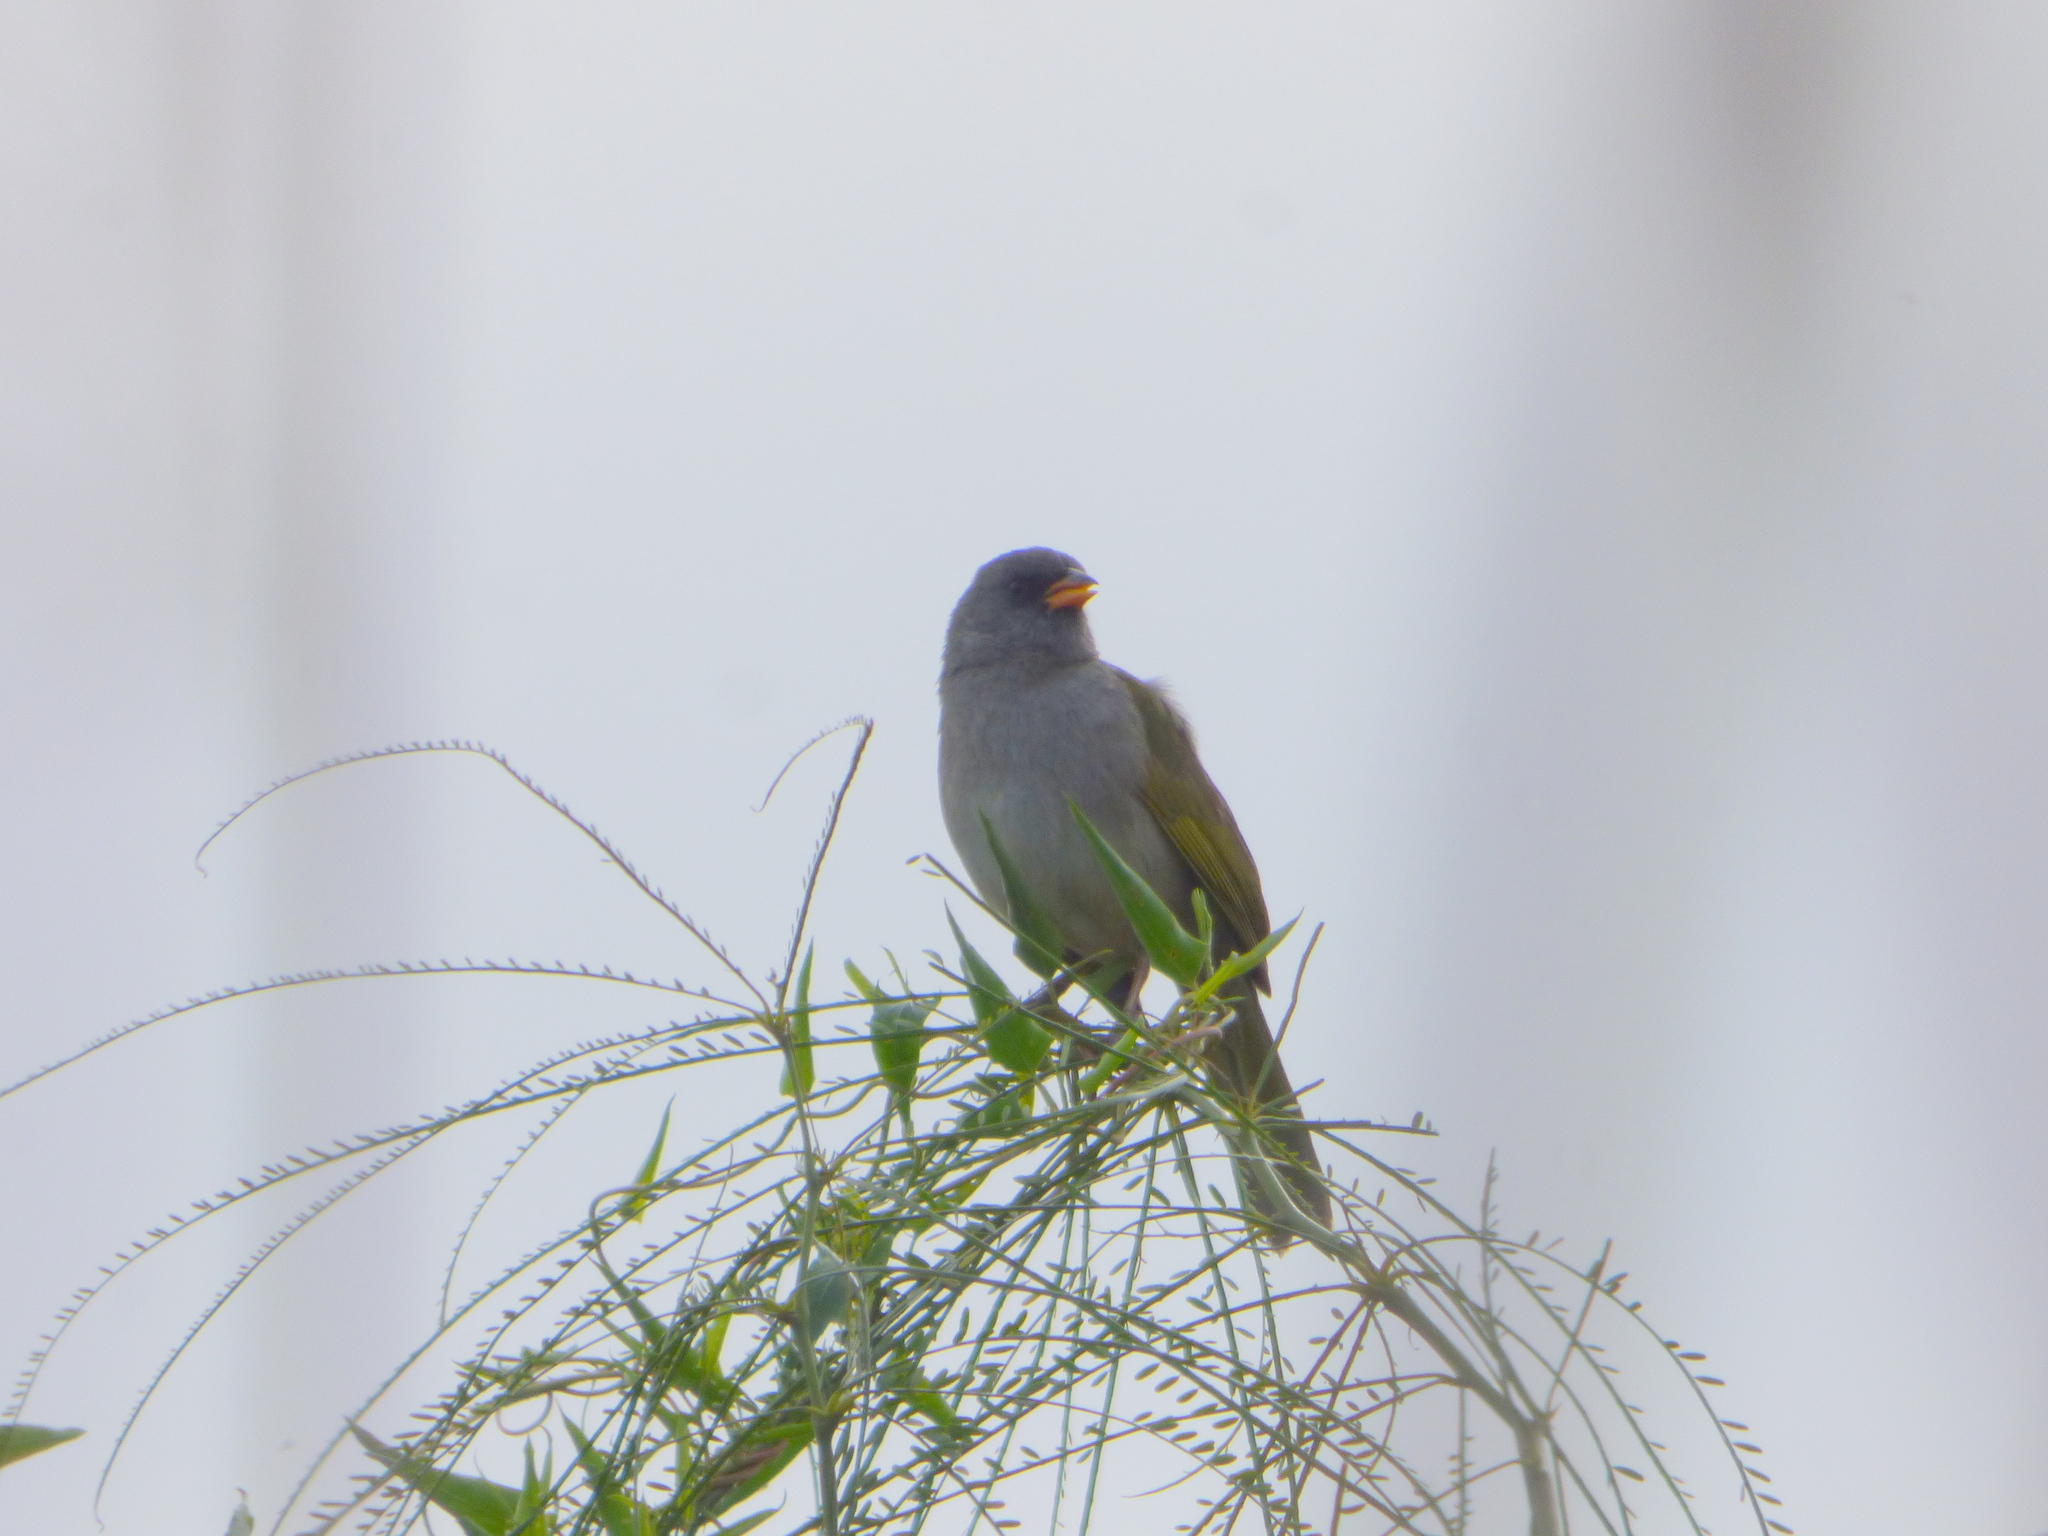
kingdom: Animalia
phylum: Chordata
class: Aves
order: Passeriformes
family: Thraupidae
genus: Embernagra
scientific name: Embernagra platensis
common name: Pampa finch
